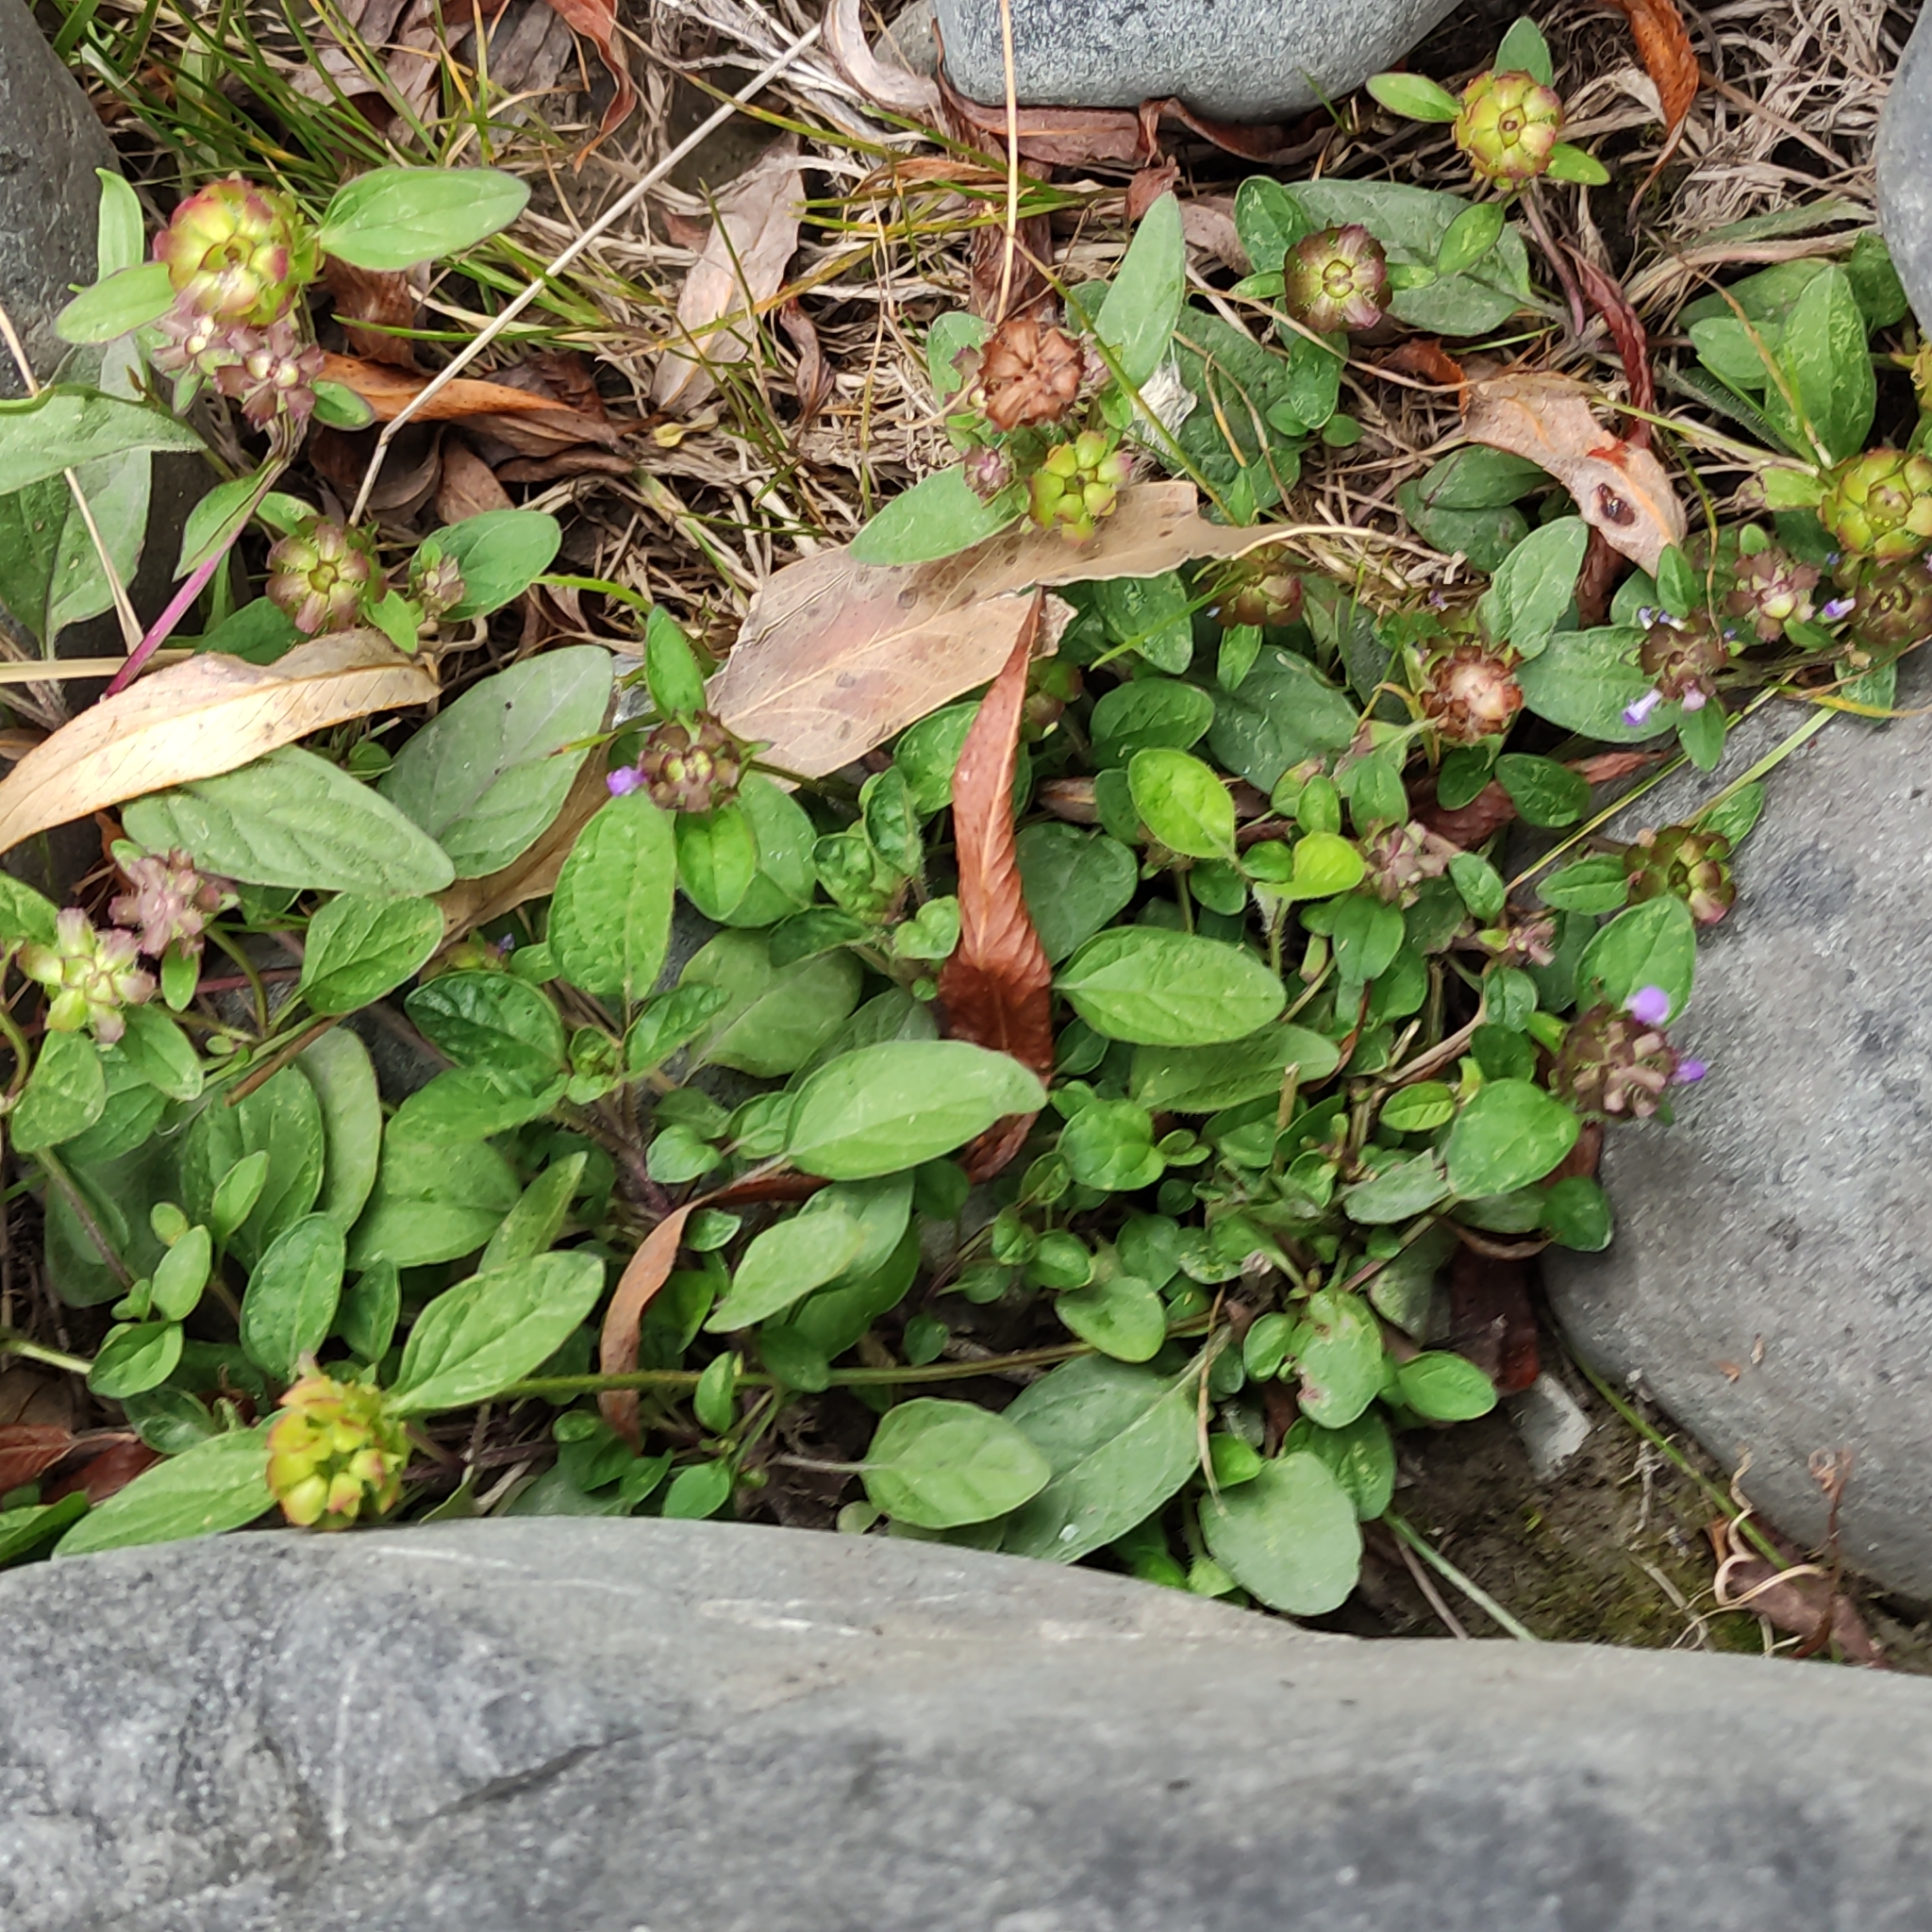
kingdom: Plantae
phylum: Tracheophyta
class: Magnoliopsida
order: Lamiales
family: Lamiaceae
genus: Prunella
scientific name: Prunella vulgaris
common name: Heal-all
